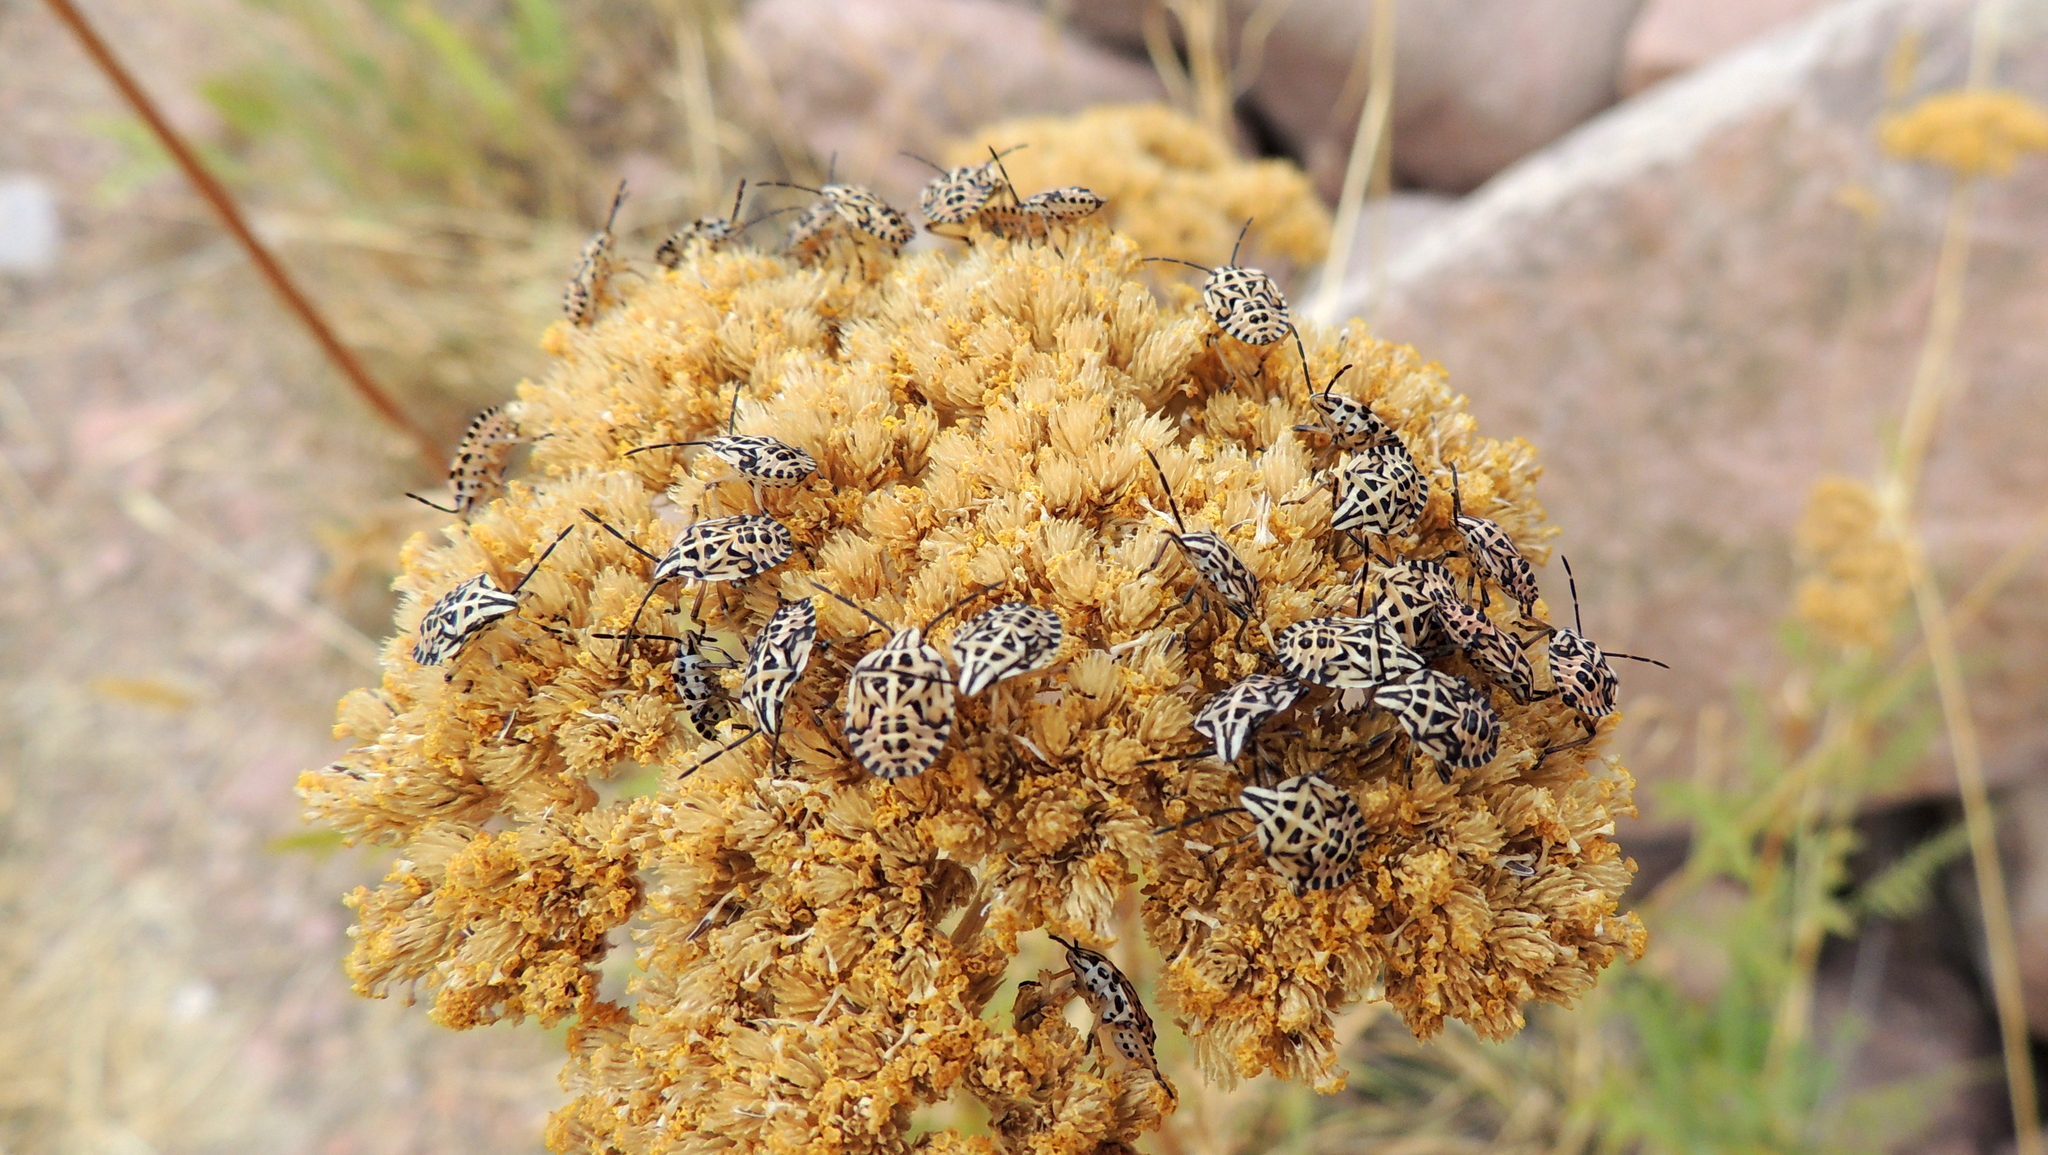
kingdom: Animalia
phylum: Arthropoda
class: Insecta
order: Hemiptera
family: Miridae
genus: Orthops
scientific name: Orthops kalmii
